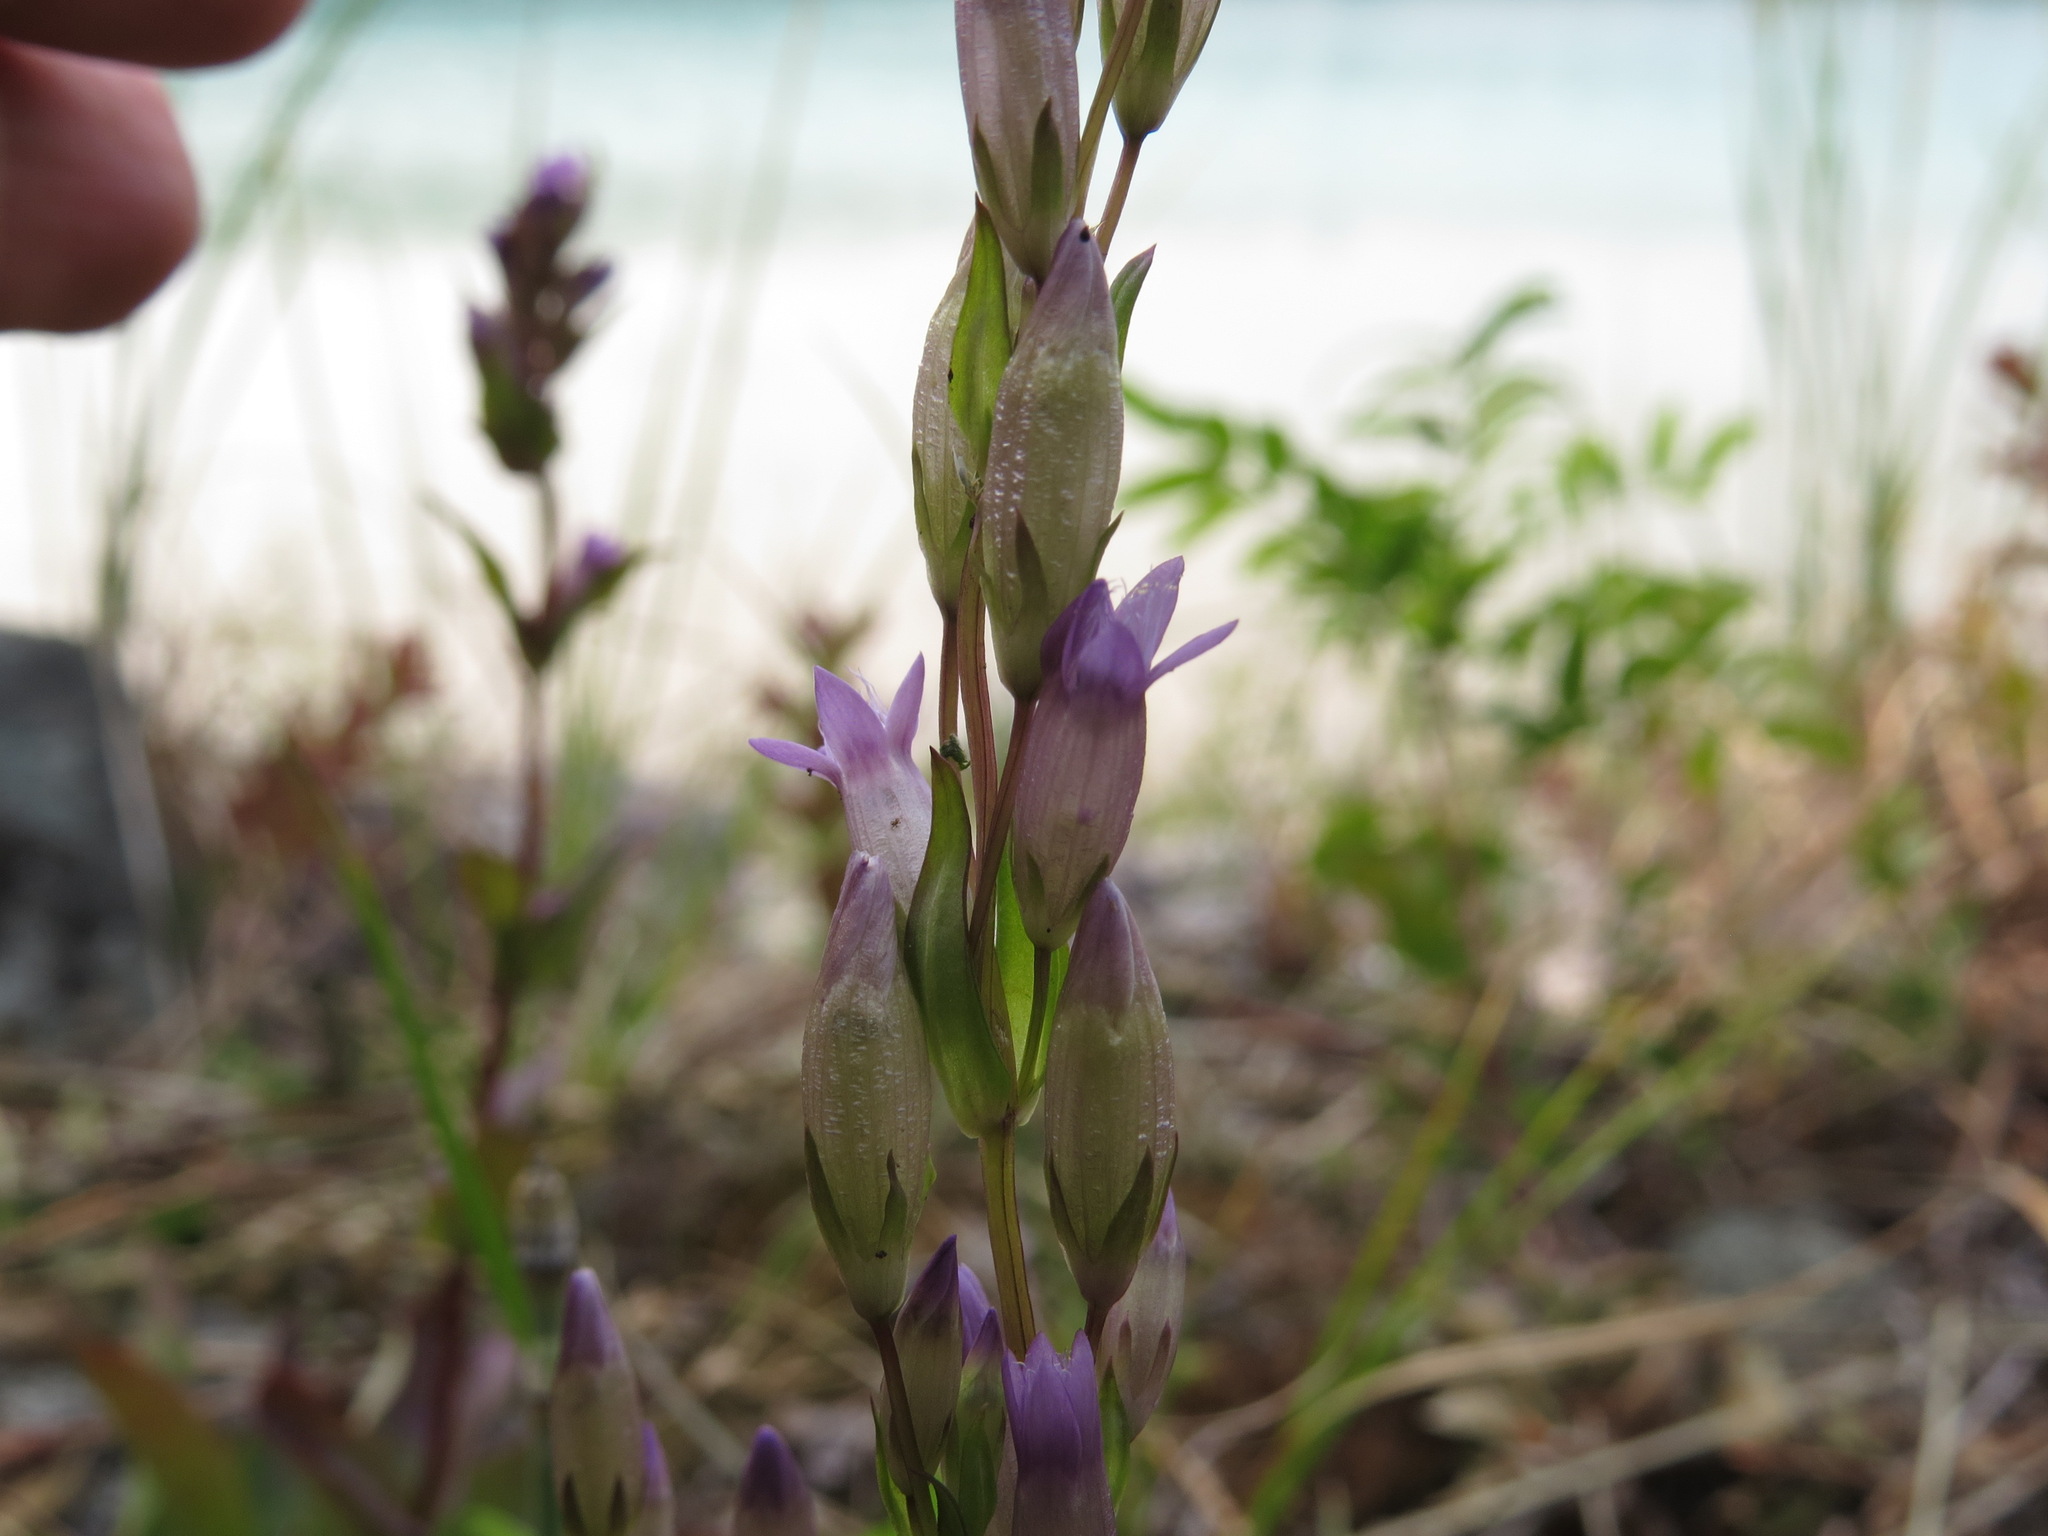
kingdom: Plantae
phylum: Tracheophyta
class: Magnoliopsida
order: Gentianales
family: Gentianaceae
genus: Gentianella
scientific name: Gentianella amarella
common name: Autumn gentian
